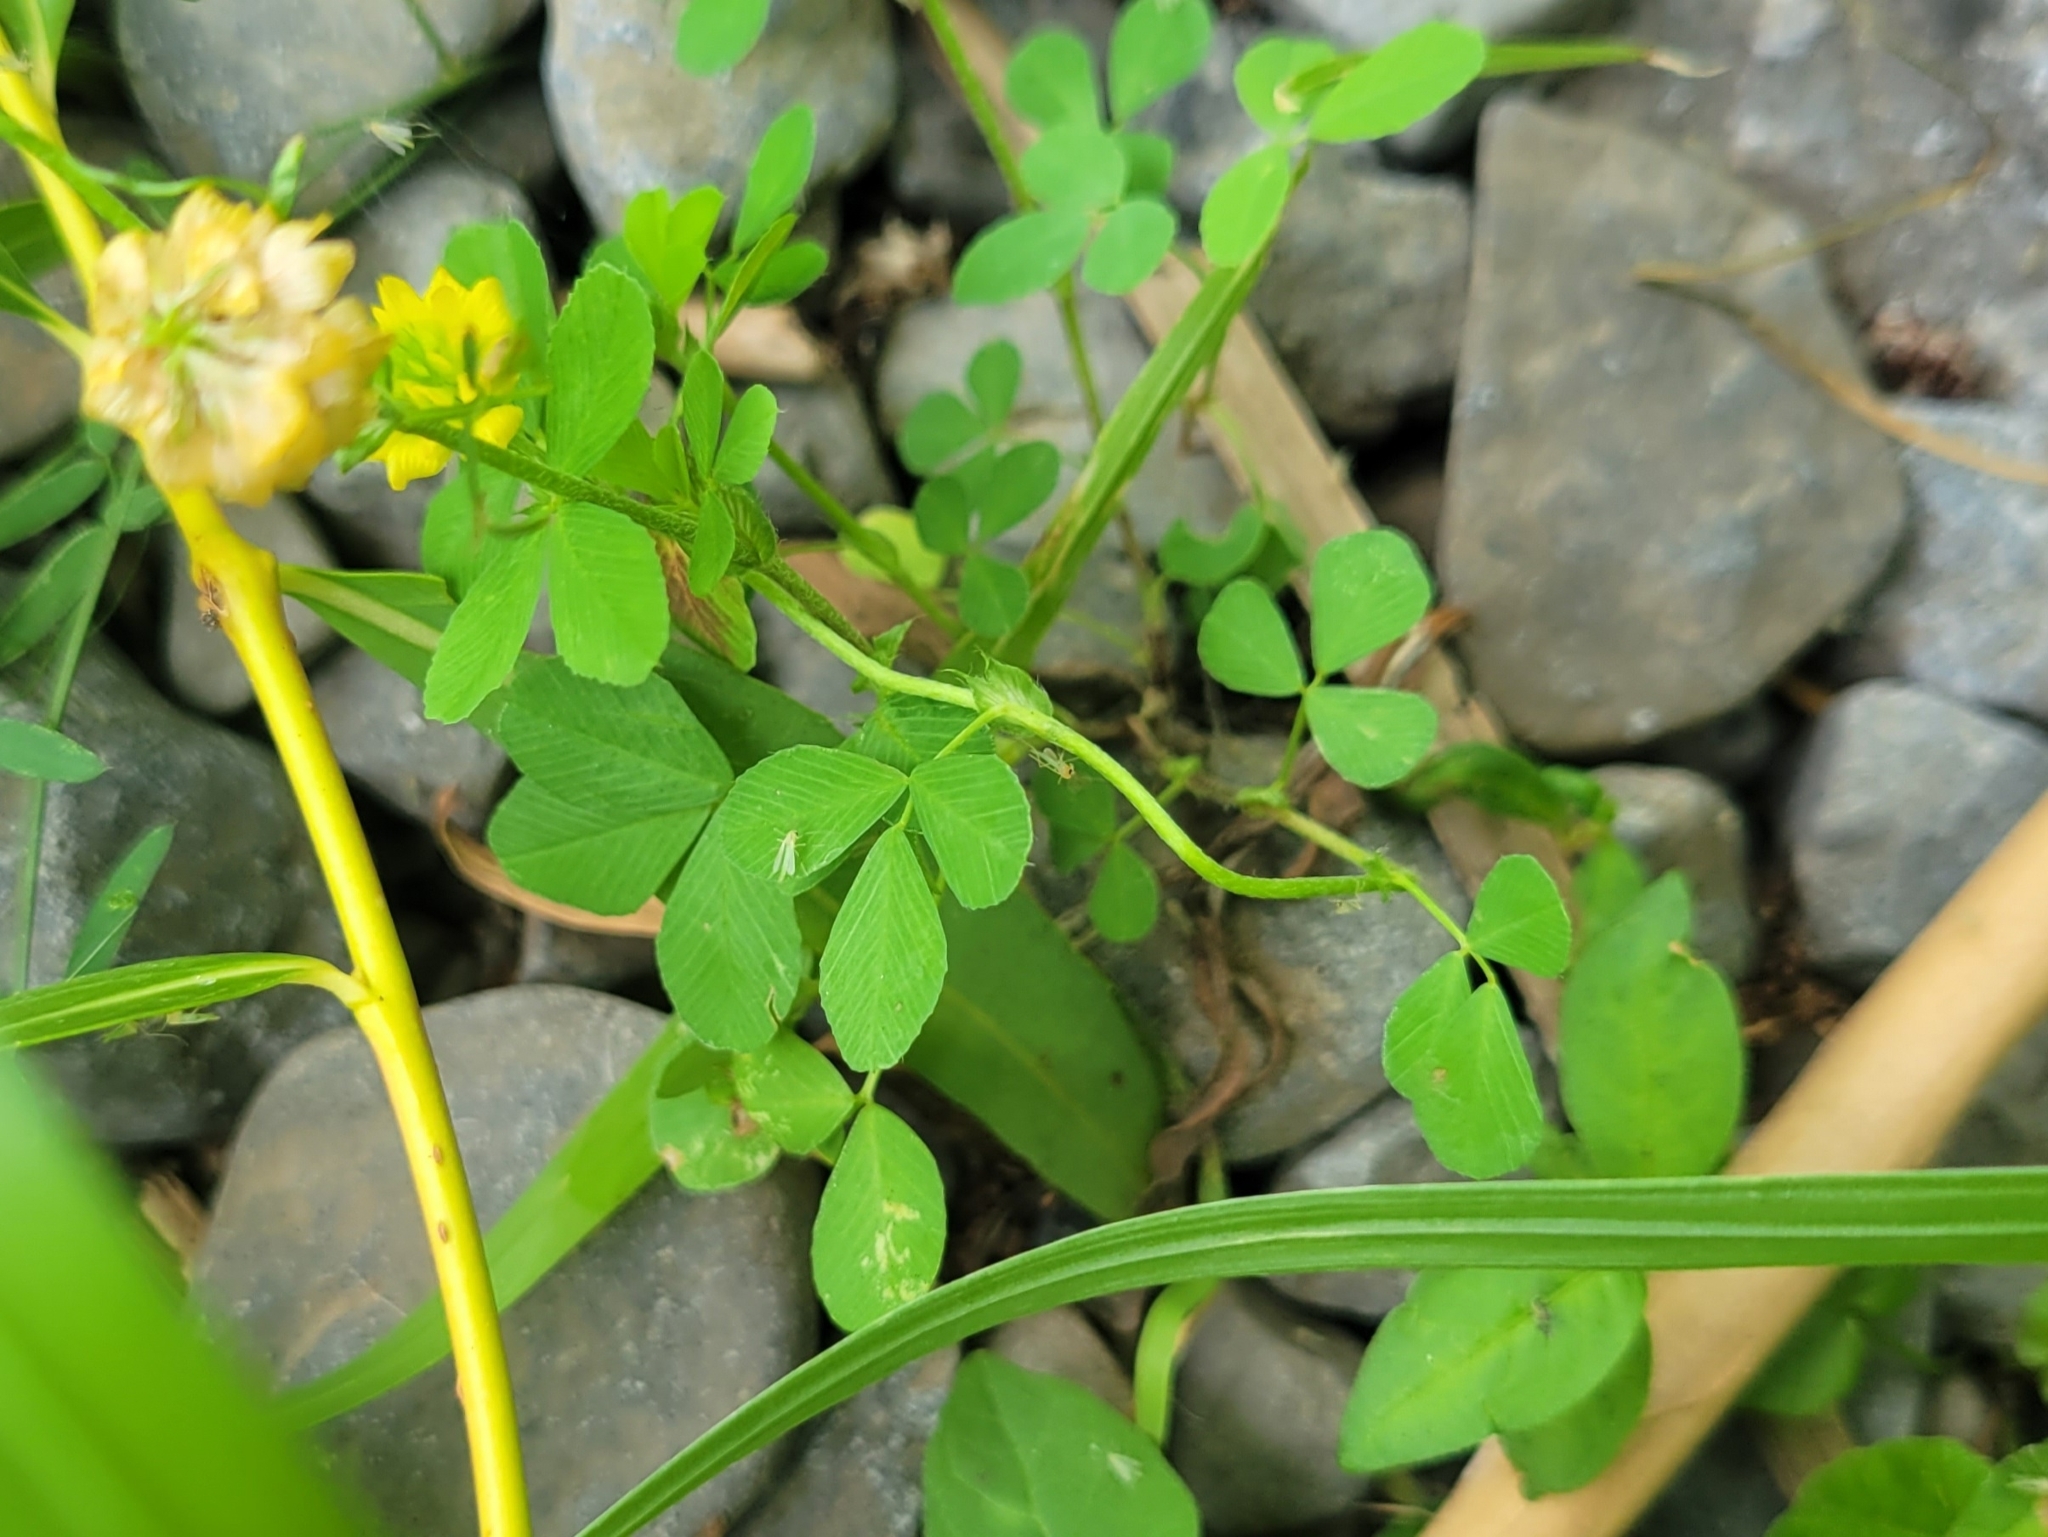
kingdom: Plantae
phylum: Tracheophyta
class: Magnoliopsida
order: Fabales
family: Fabaceae
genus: Trifolium
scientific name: Trifolium campestre
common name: Field clover
